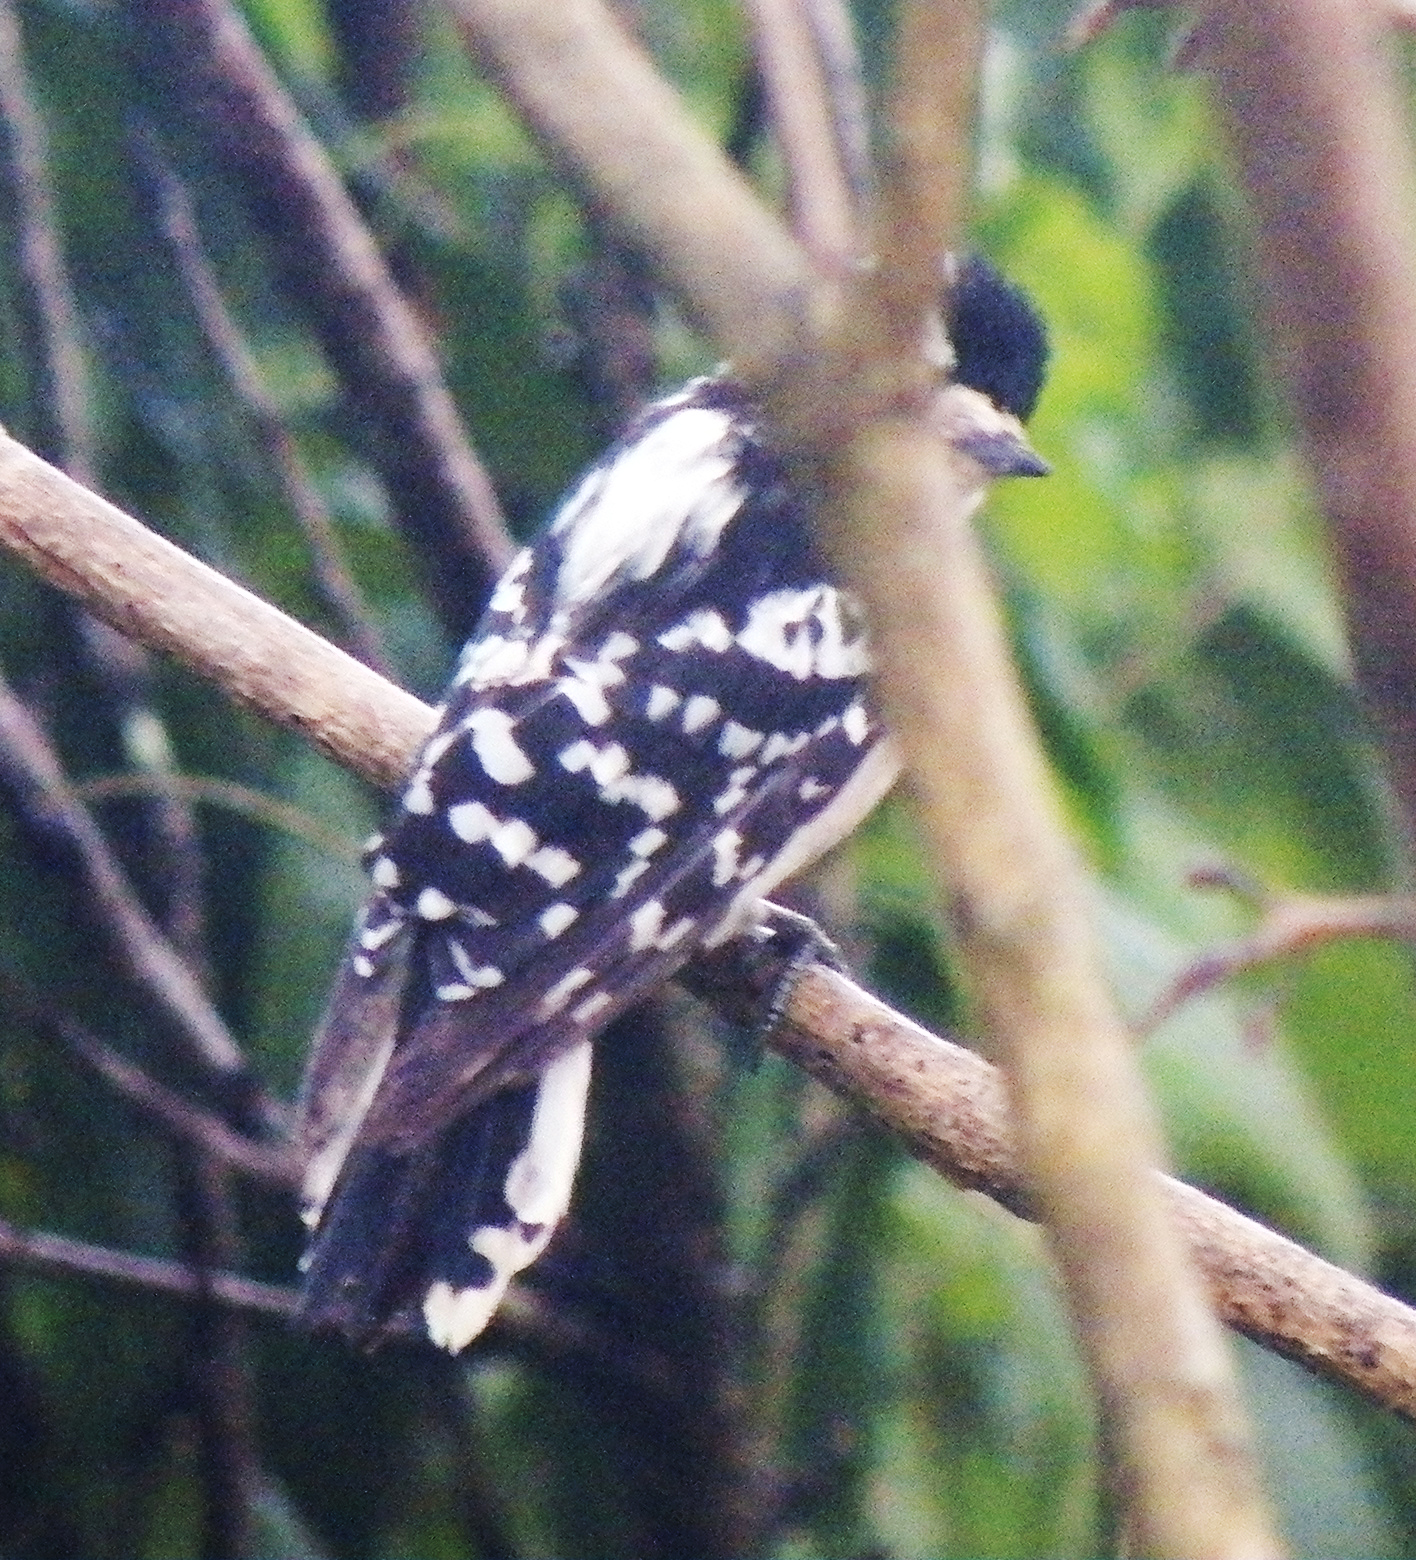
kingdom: Animalia
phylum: Chordata
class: Aves
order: Piciformes
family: Picidae
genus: Dryobates
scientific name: Dryobates pubescens
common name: Downy woodpecker
